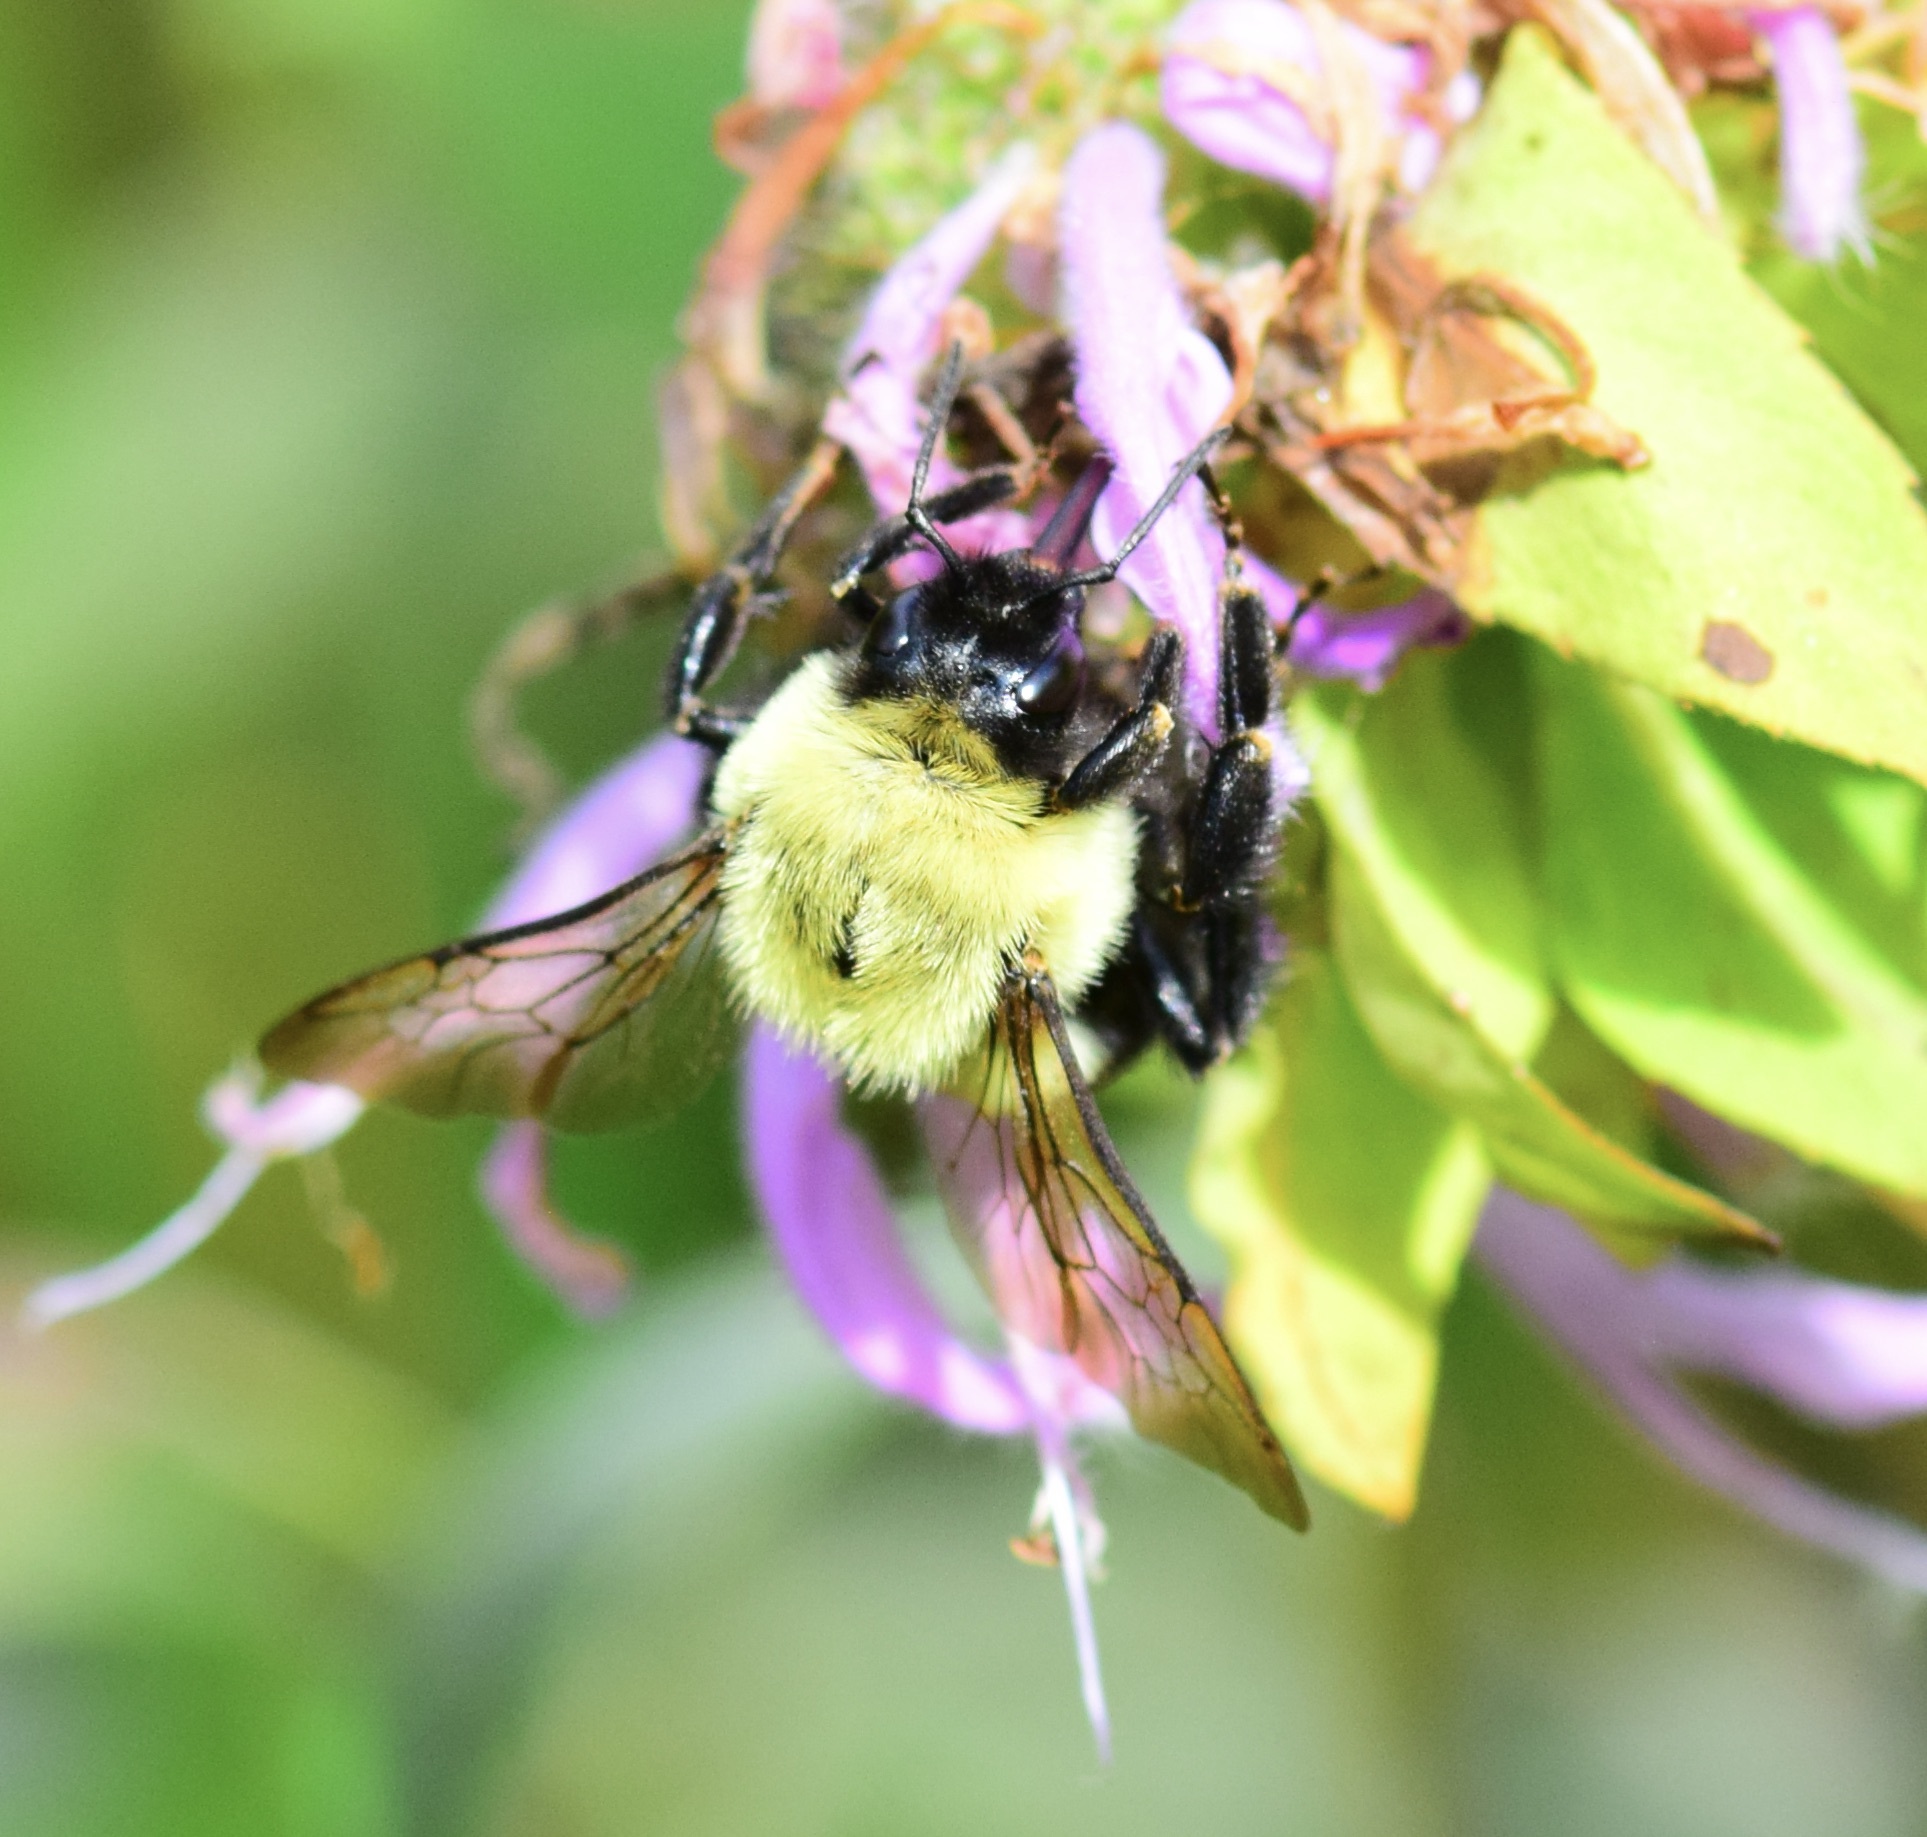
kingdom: Animalia
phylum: Arthropoda
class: Insecta
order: Hymenoptera
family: Apidae
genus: Bombus
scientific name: Bombus impatiens
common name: Common eastern bumble bee
